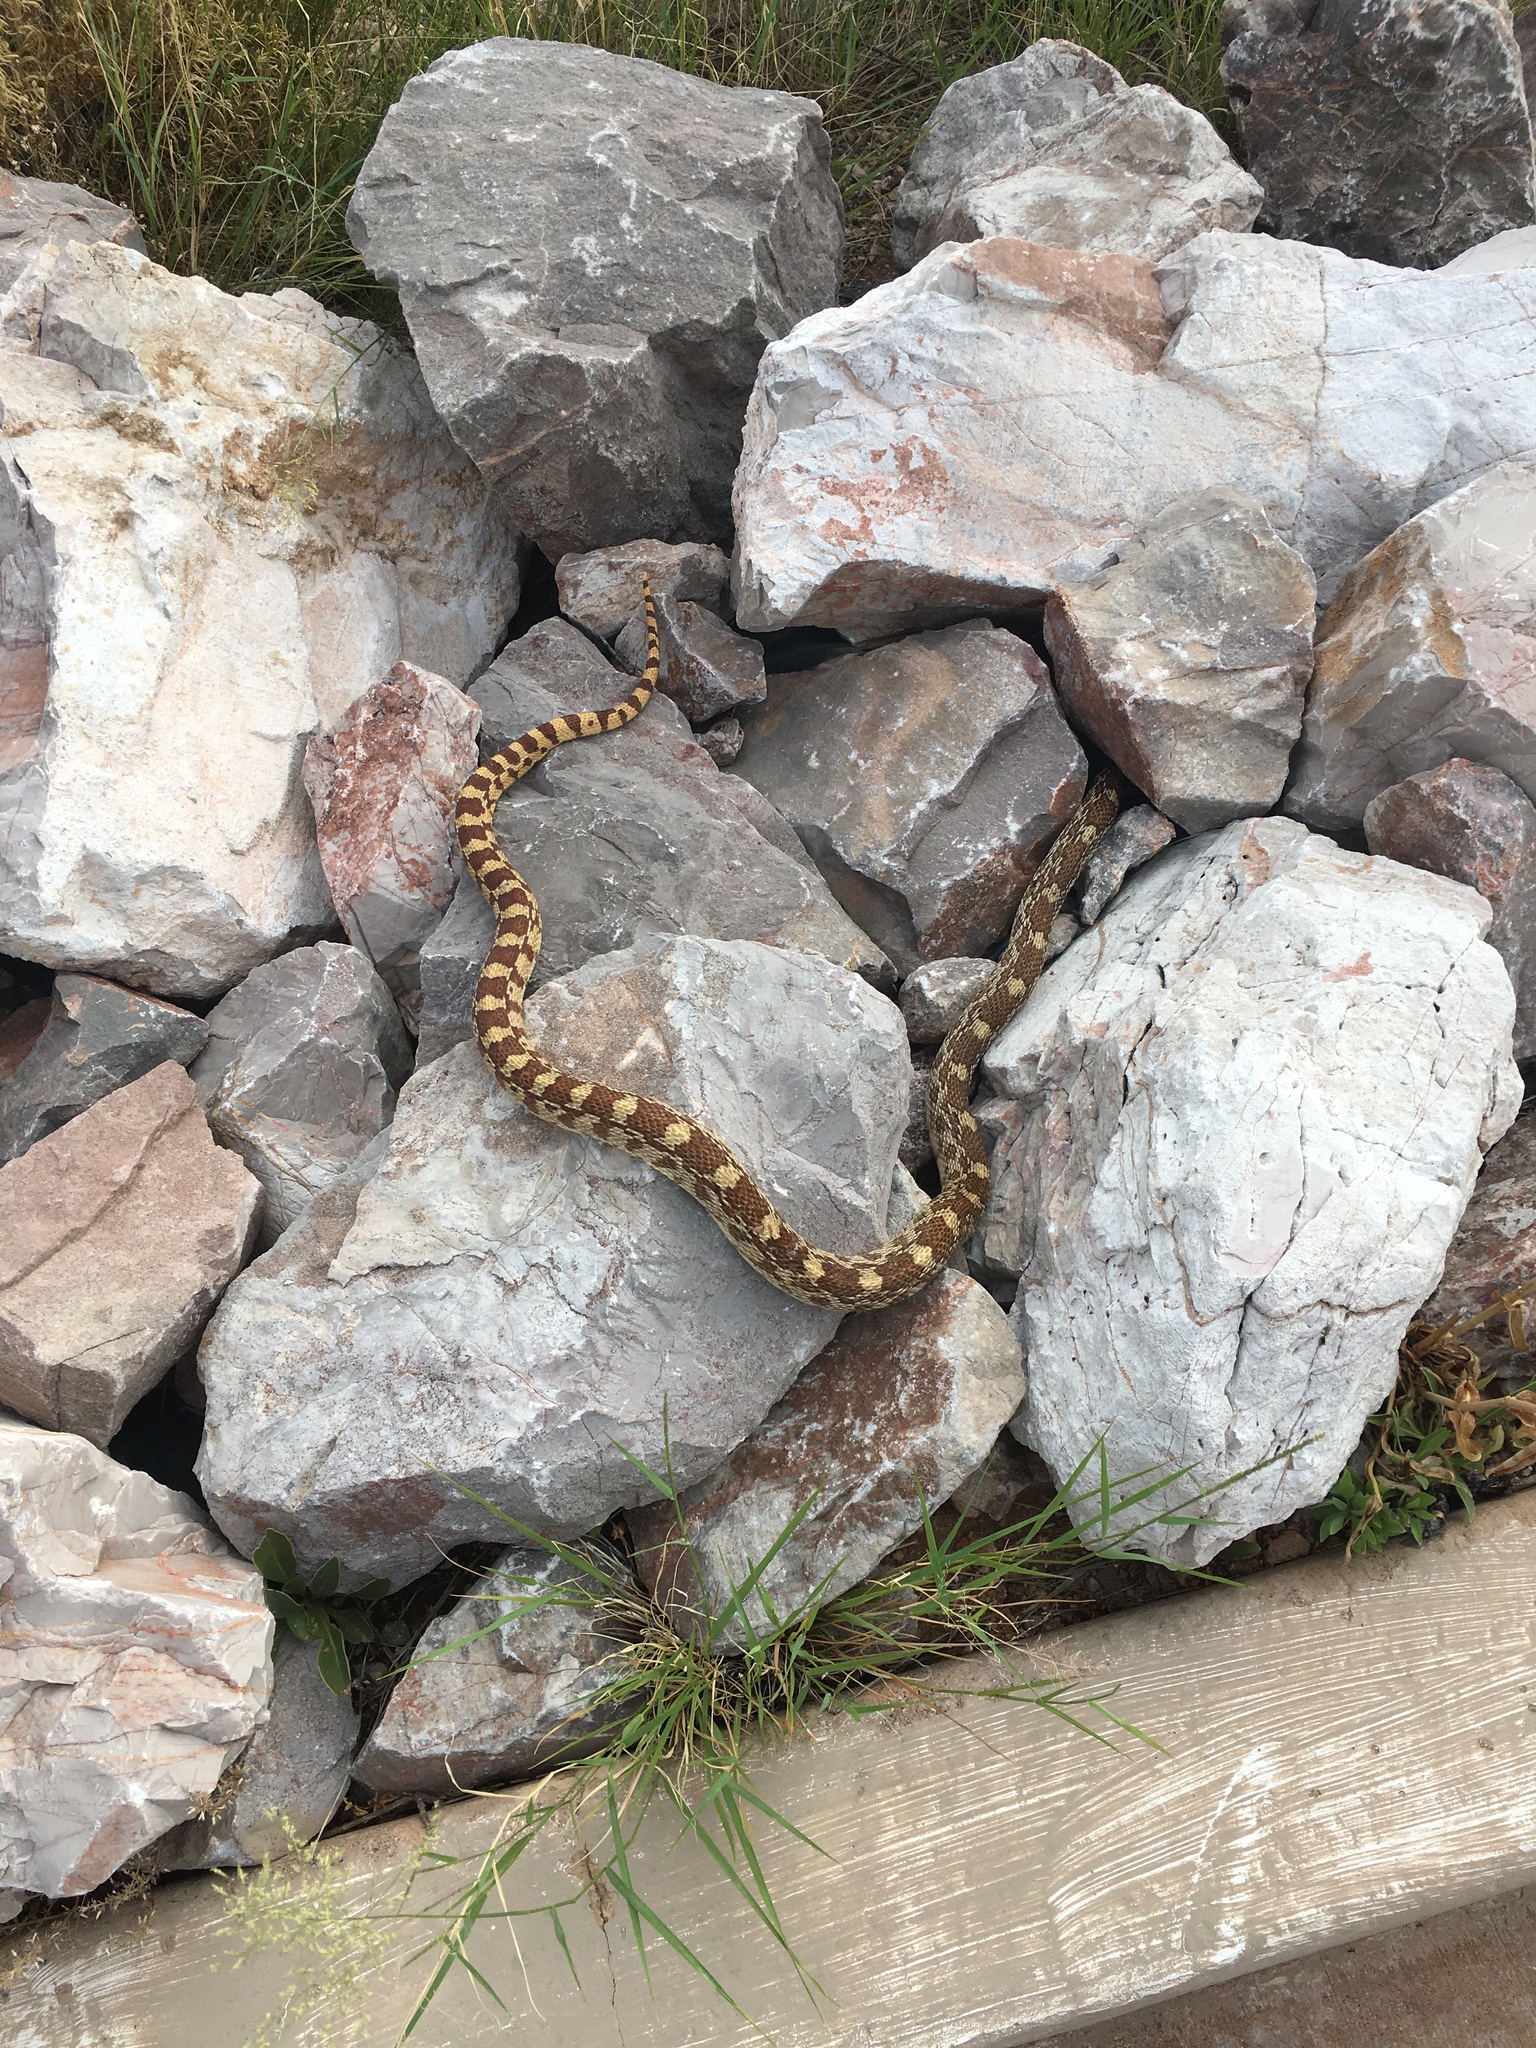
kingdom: Animalia
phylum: Chordata
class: Squamata
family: Colubridae
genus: Pituophis
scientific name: Pituophis catenifer
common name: Gopher snake
